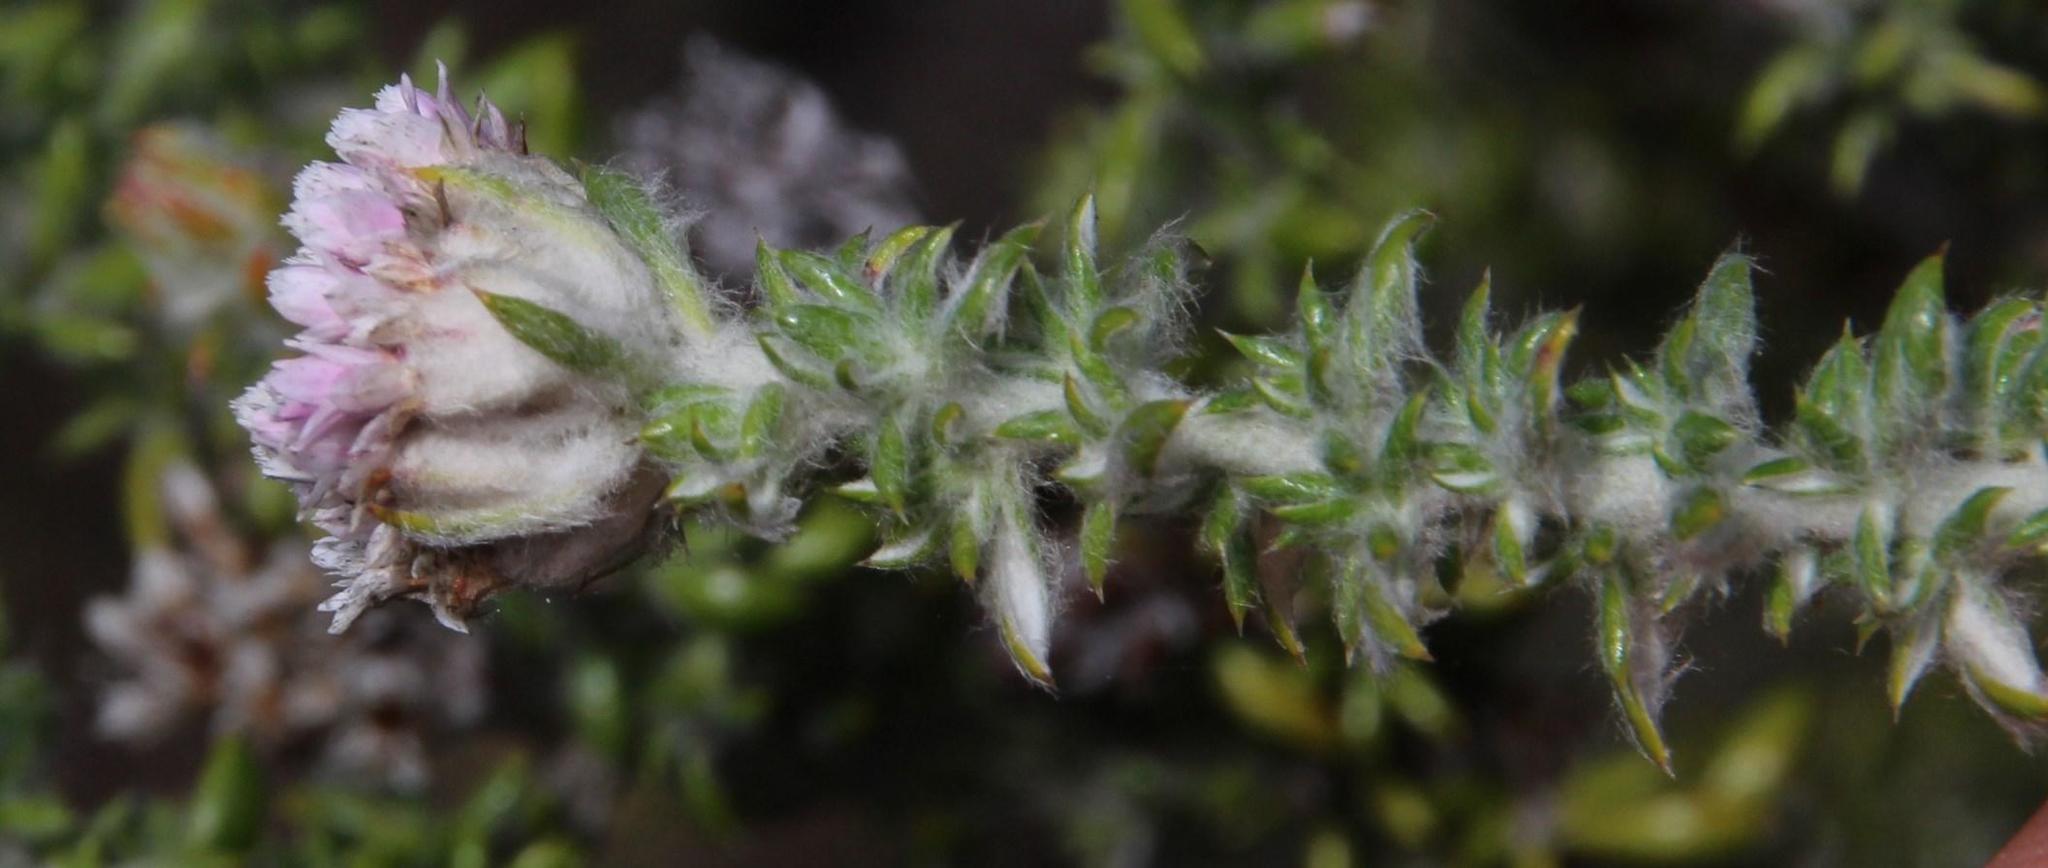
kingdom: Plantae
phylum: Tracheophyta
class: Magnoliopsida
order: Asterales
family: Asteraceae
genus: Metalasia
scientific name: Metalasia erubescens
